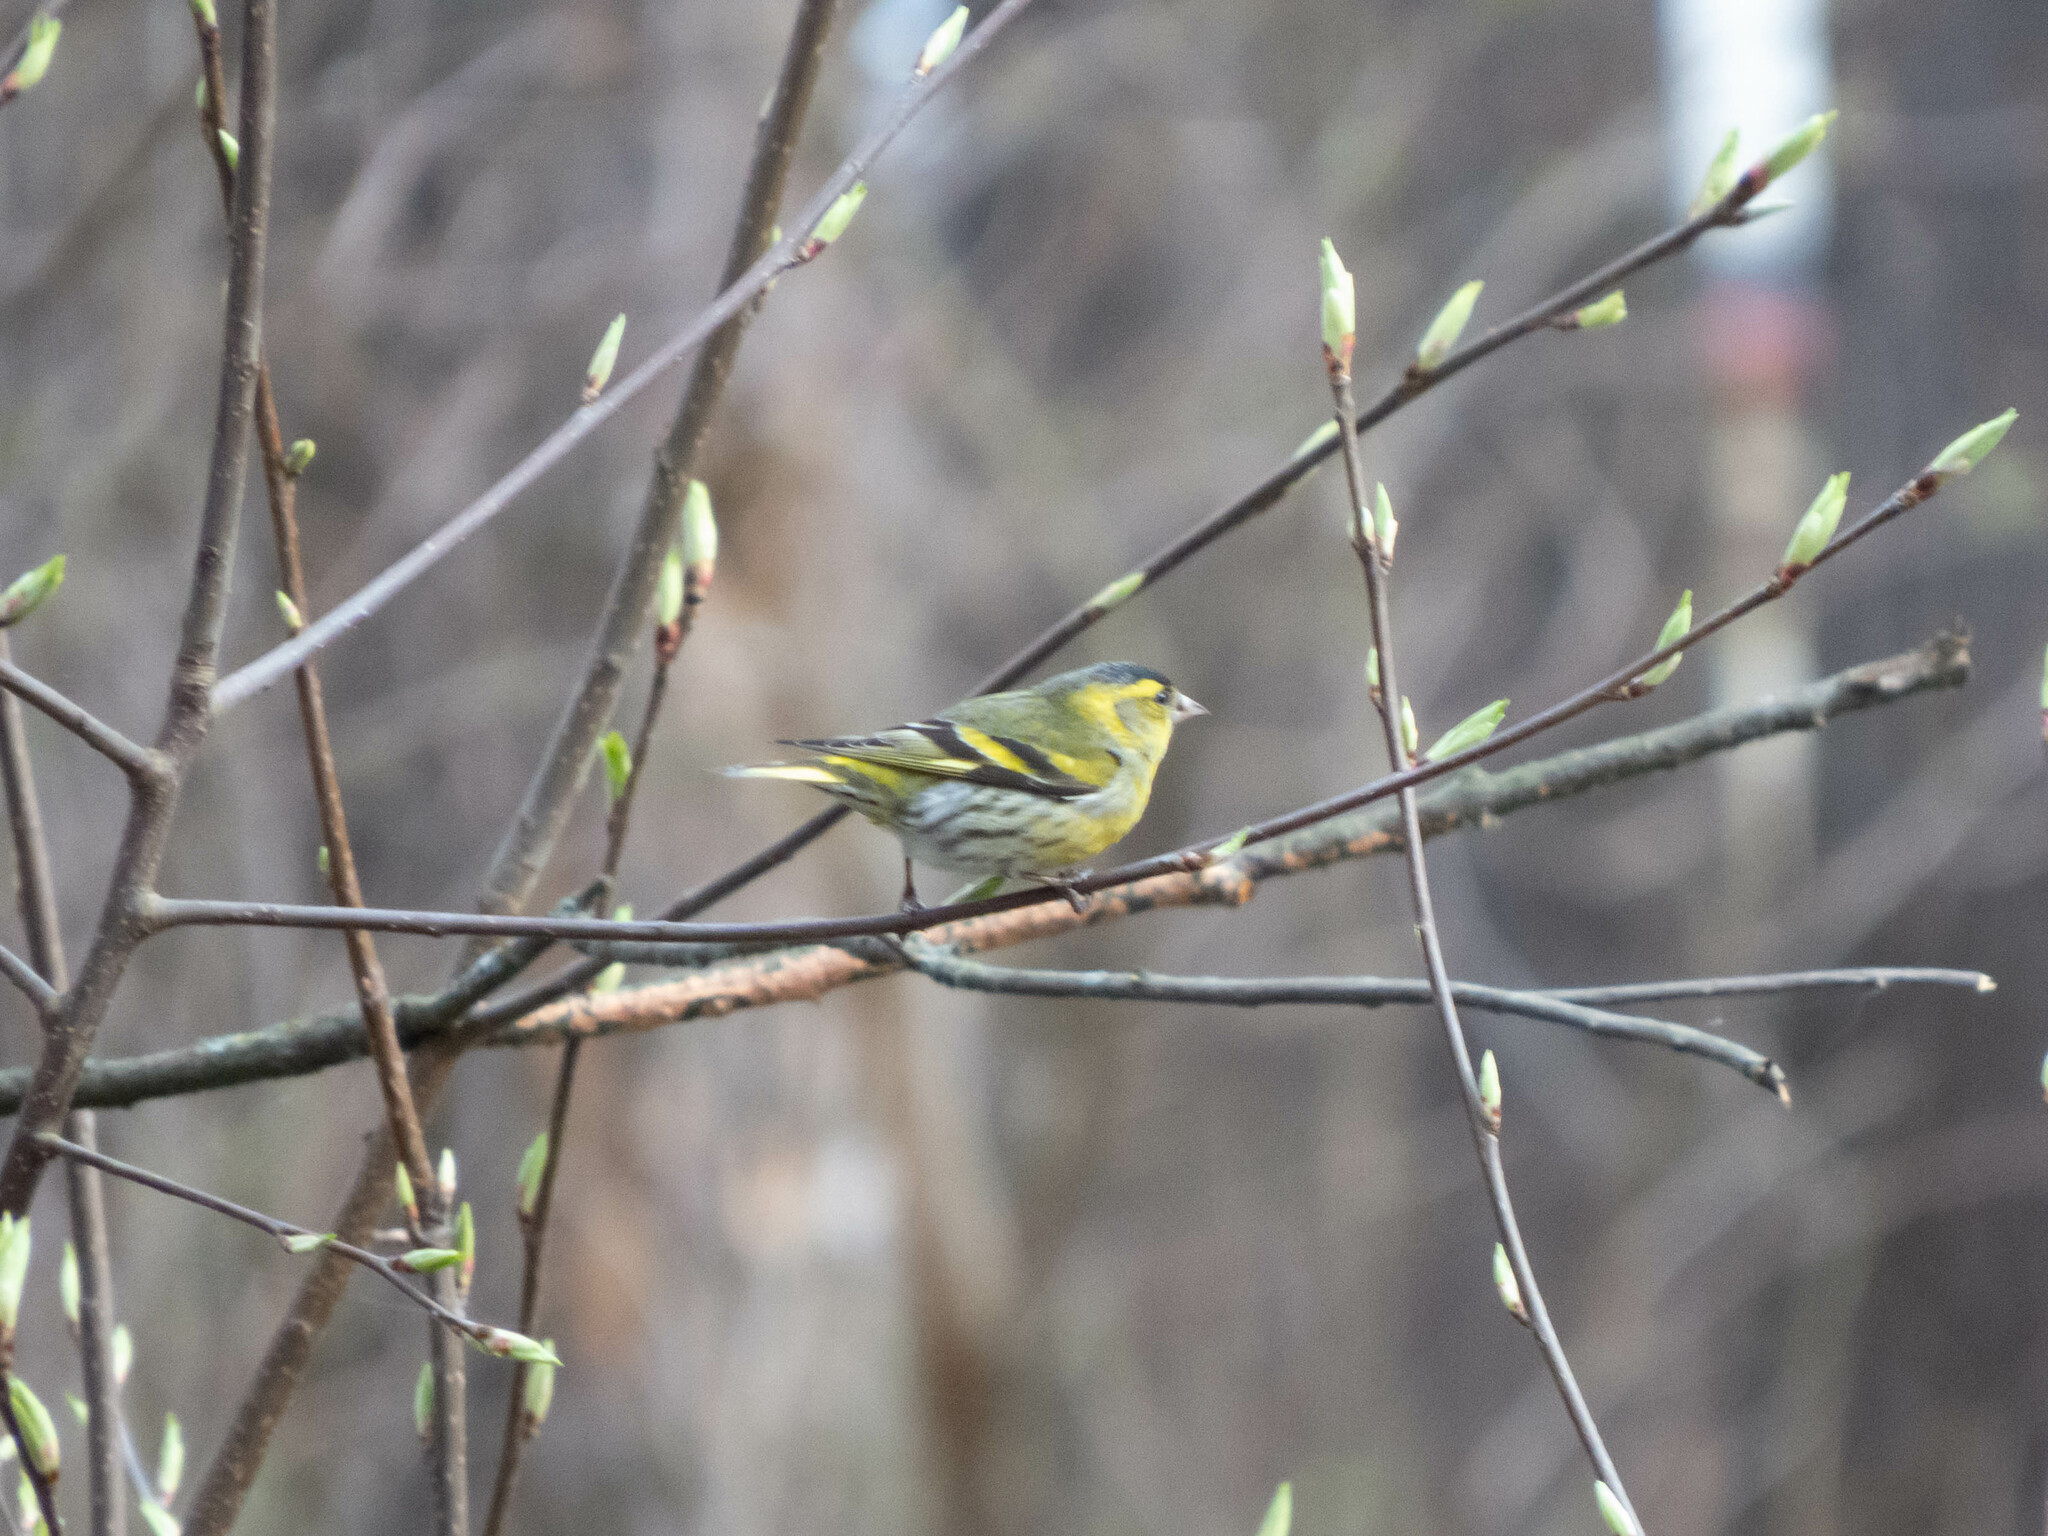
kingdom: Animalia
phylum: Chordata
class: Aves
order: Passeriformes
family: Fringillidae
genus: Spinus
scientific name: Spinus spinus
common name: Eurasian siskin
